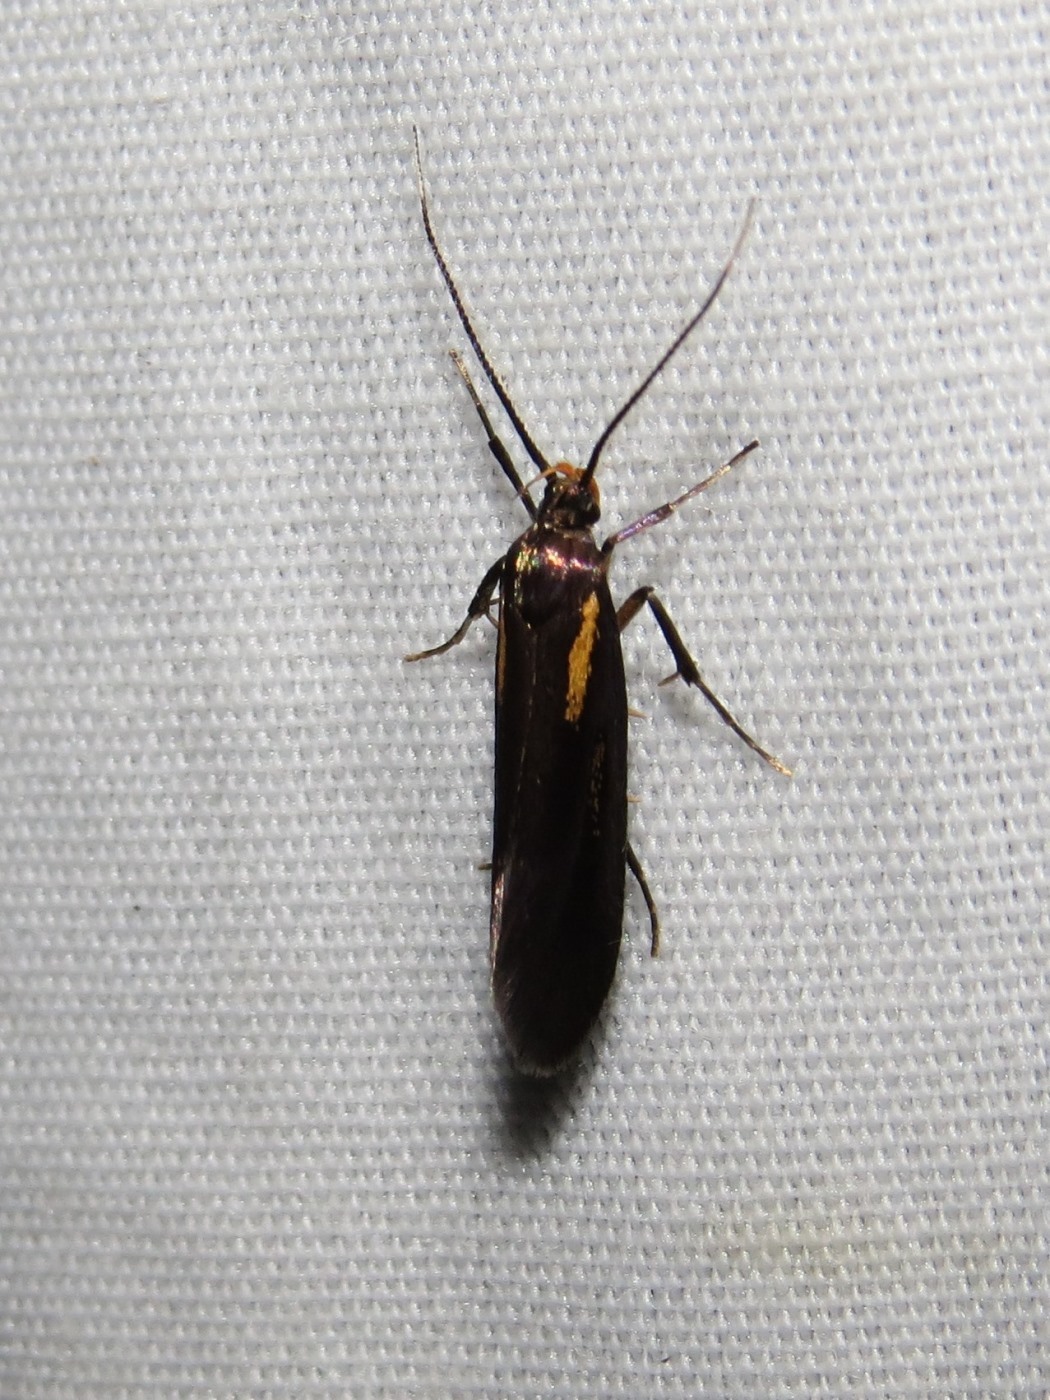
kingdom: Animalia
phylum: Arthropoda
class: Insecta
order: Lepidoptera
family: Oecophoridae
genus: Mathildana
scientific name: Mathildana flipria
